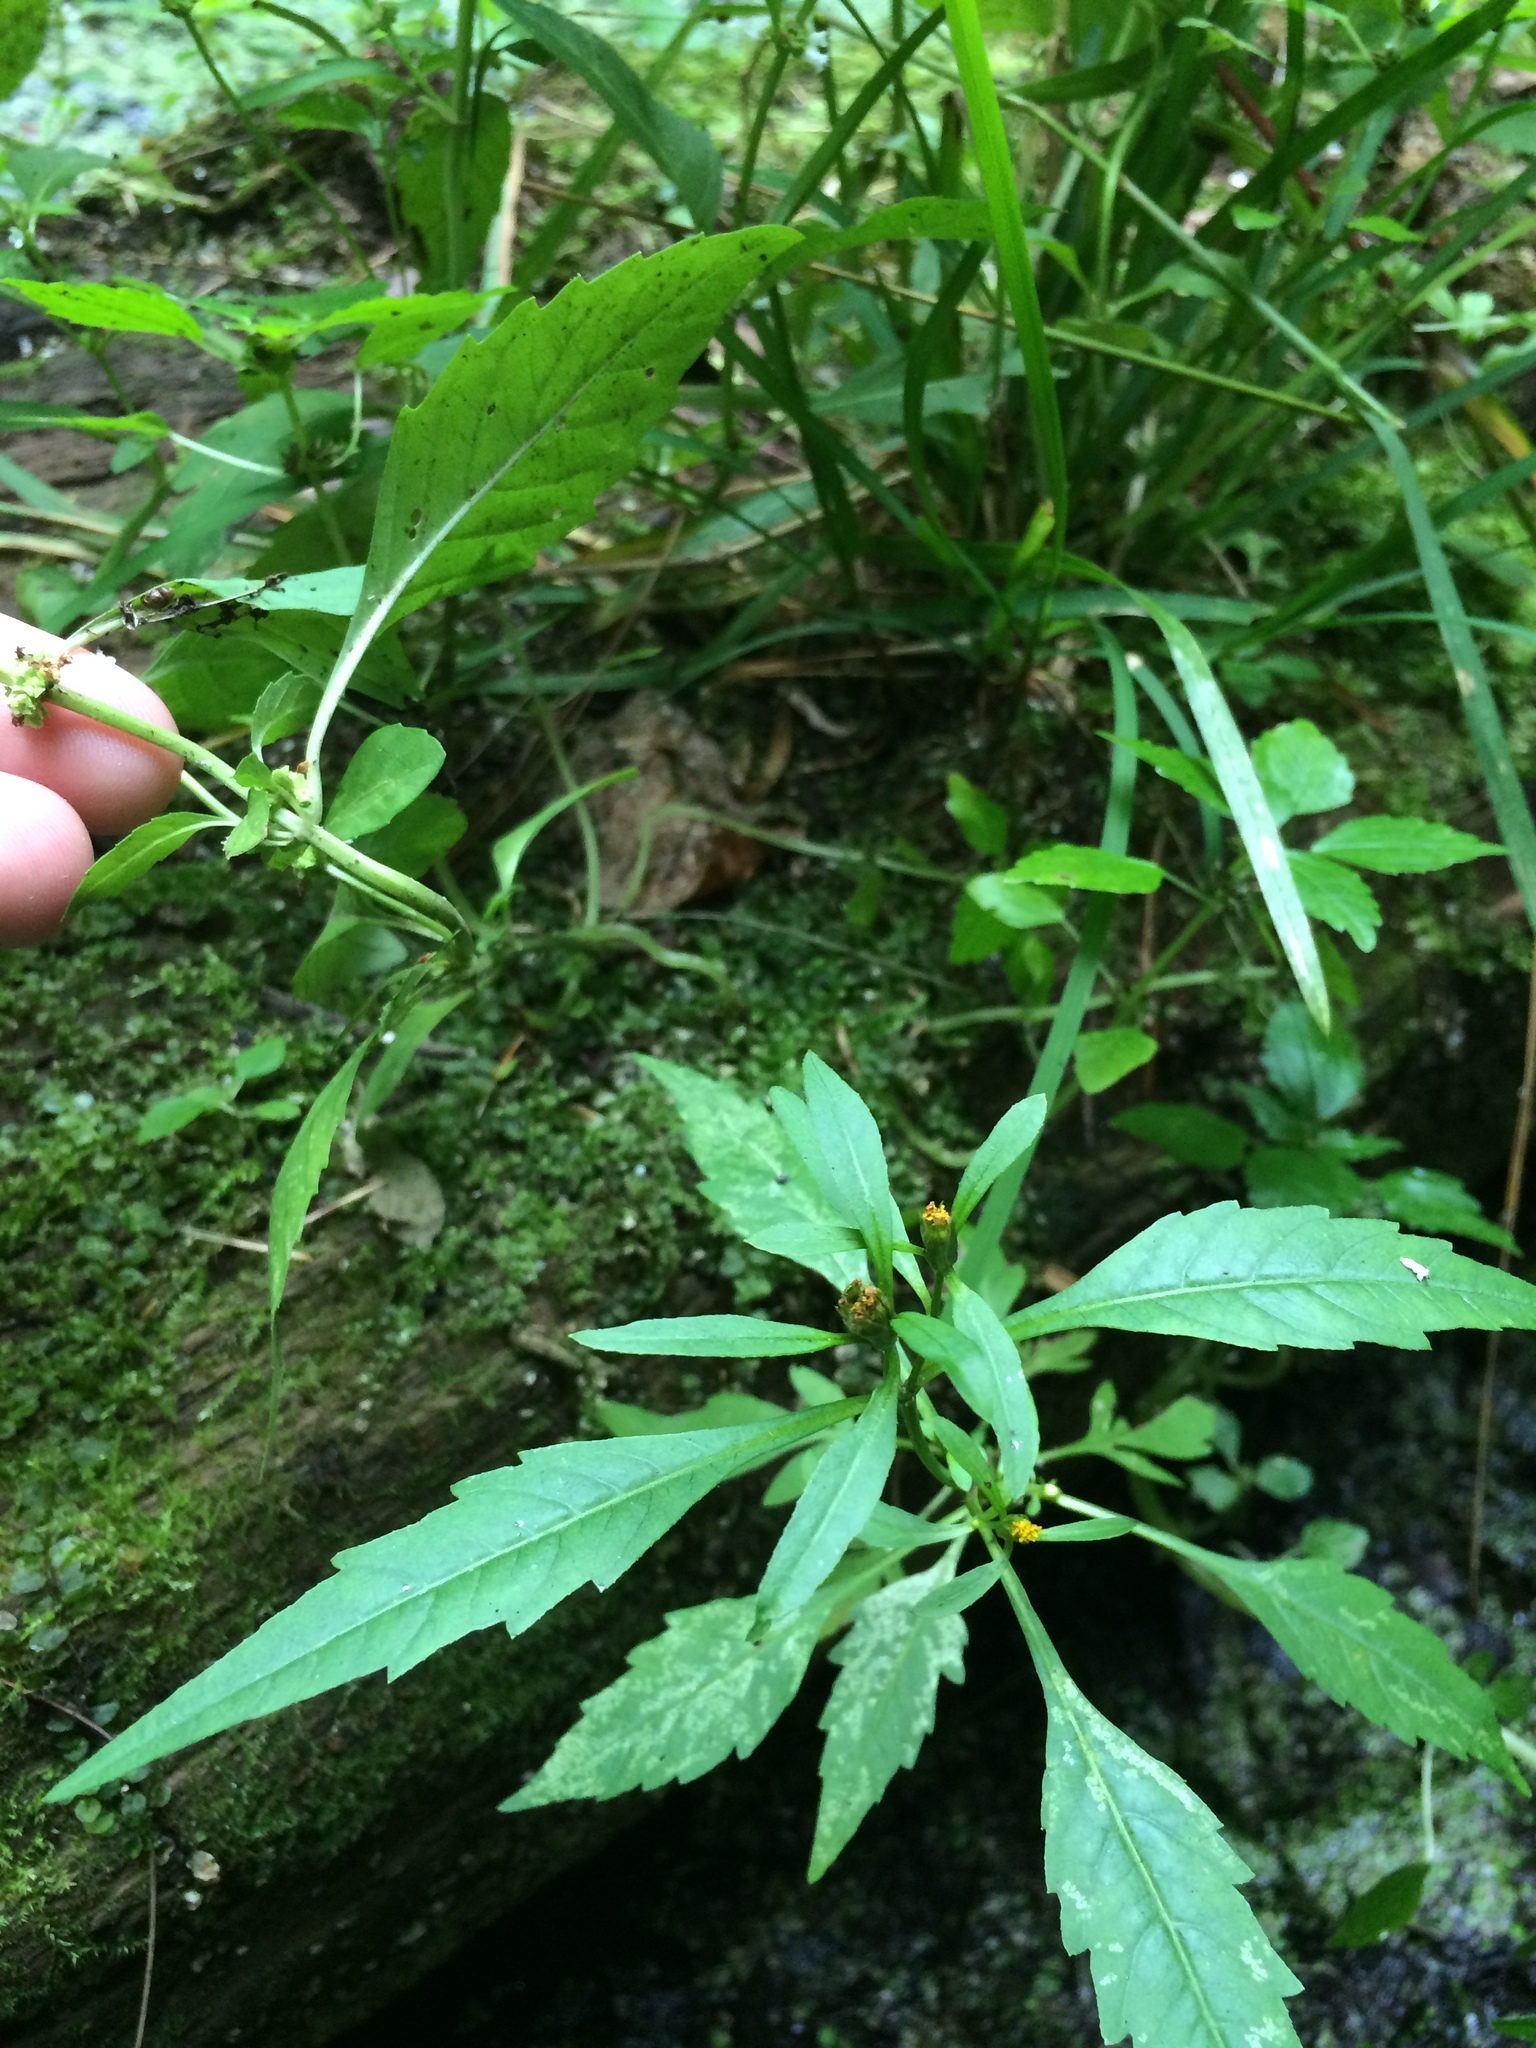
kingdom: Plantae
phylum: Tracheophyta
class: Magnoliopsida
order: Asterales
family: Asteraceae
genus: Bidens
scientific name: Bidens connata
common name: London bur-marigold
